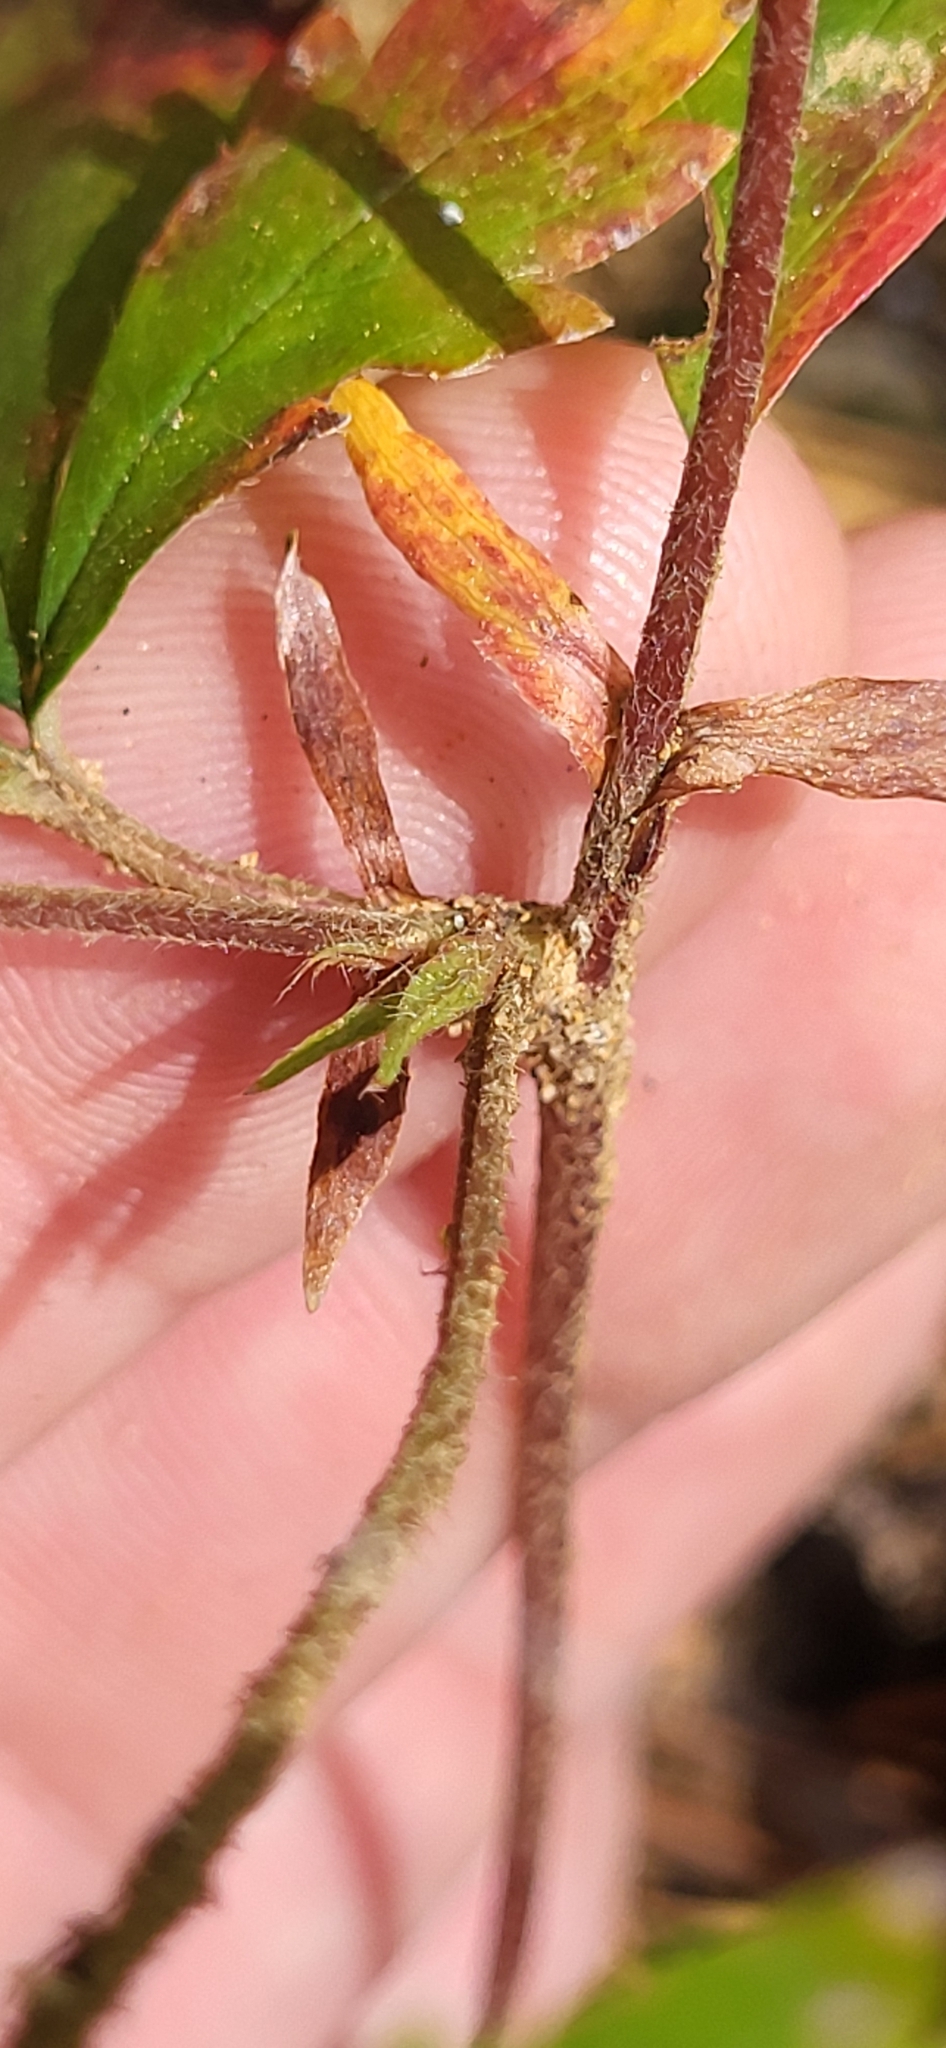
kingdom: Plantae
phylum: Tracheophyta
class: Magnoliopsida
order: Rosales
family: Rosaceae
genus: Potentilla
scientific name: Potentilla simplex
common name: Old field cinquefoil
